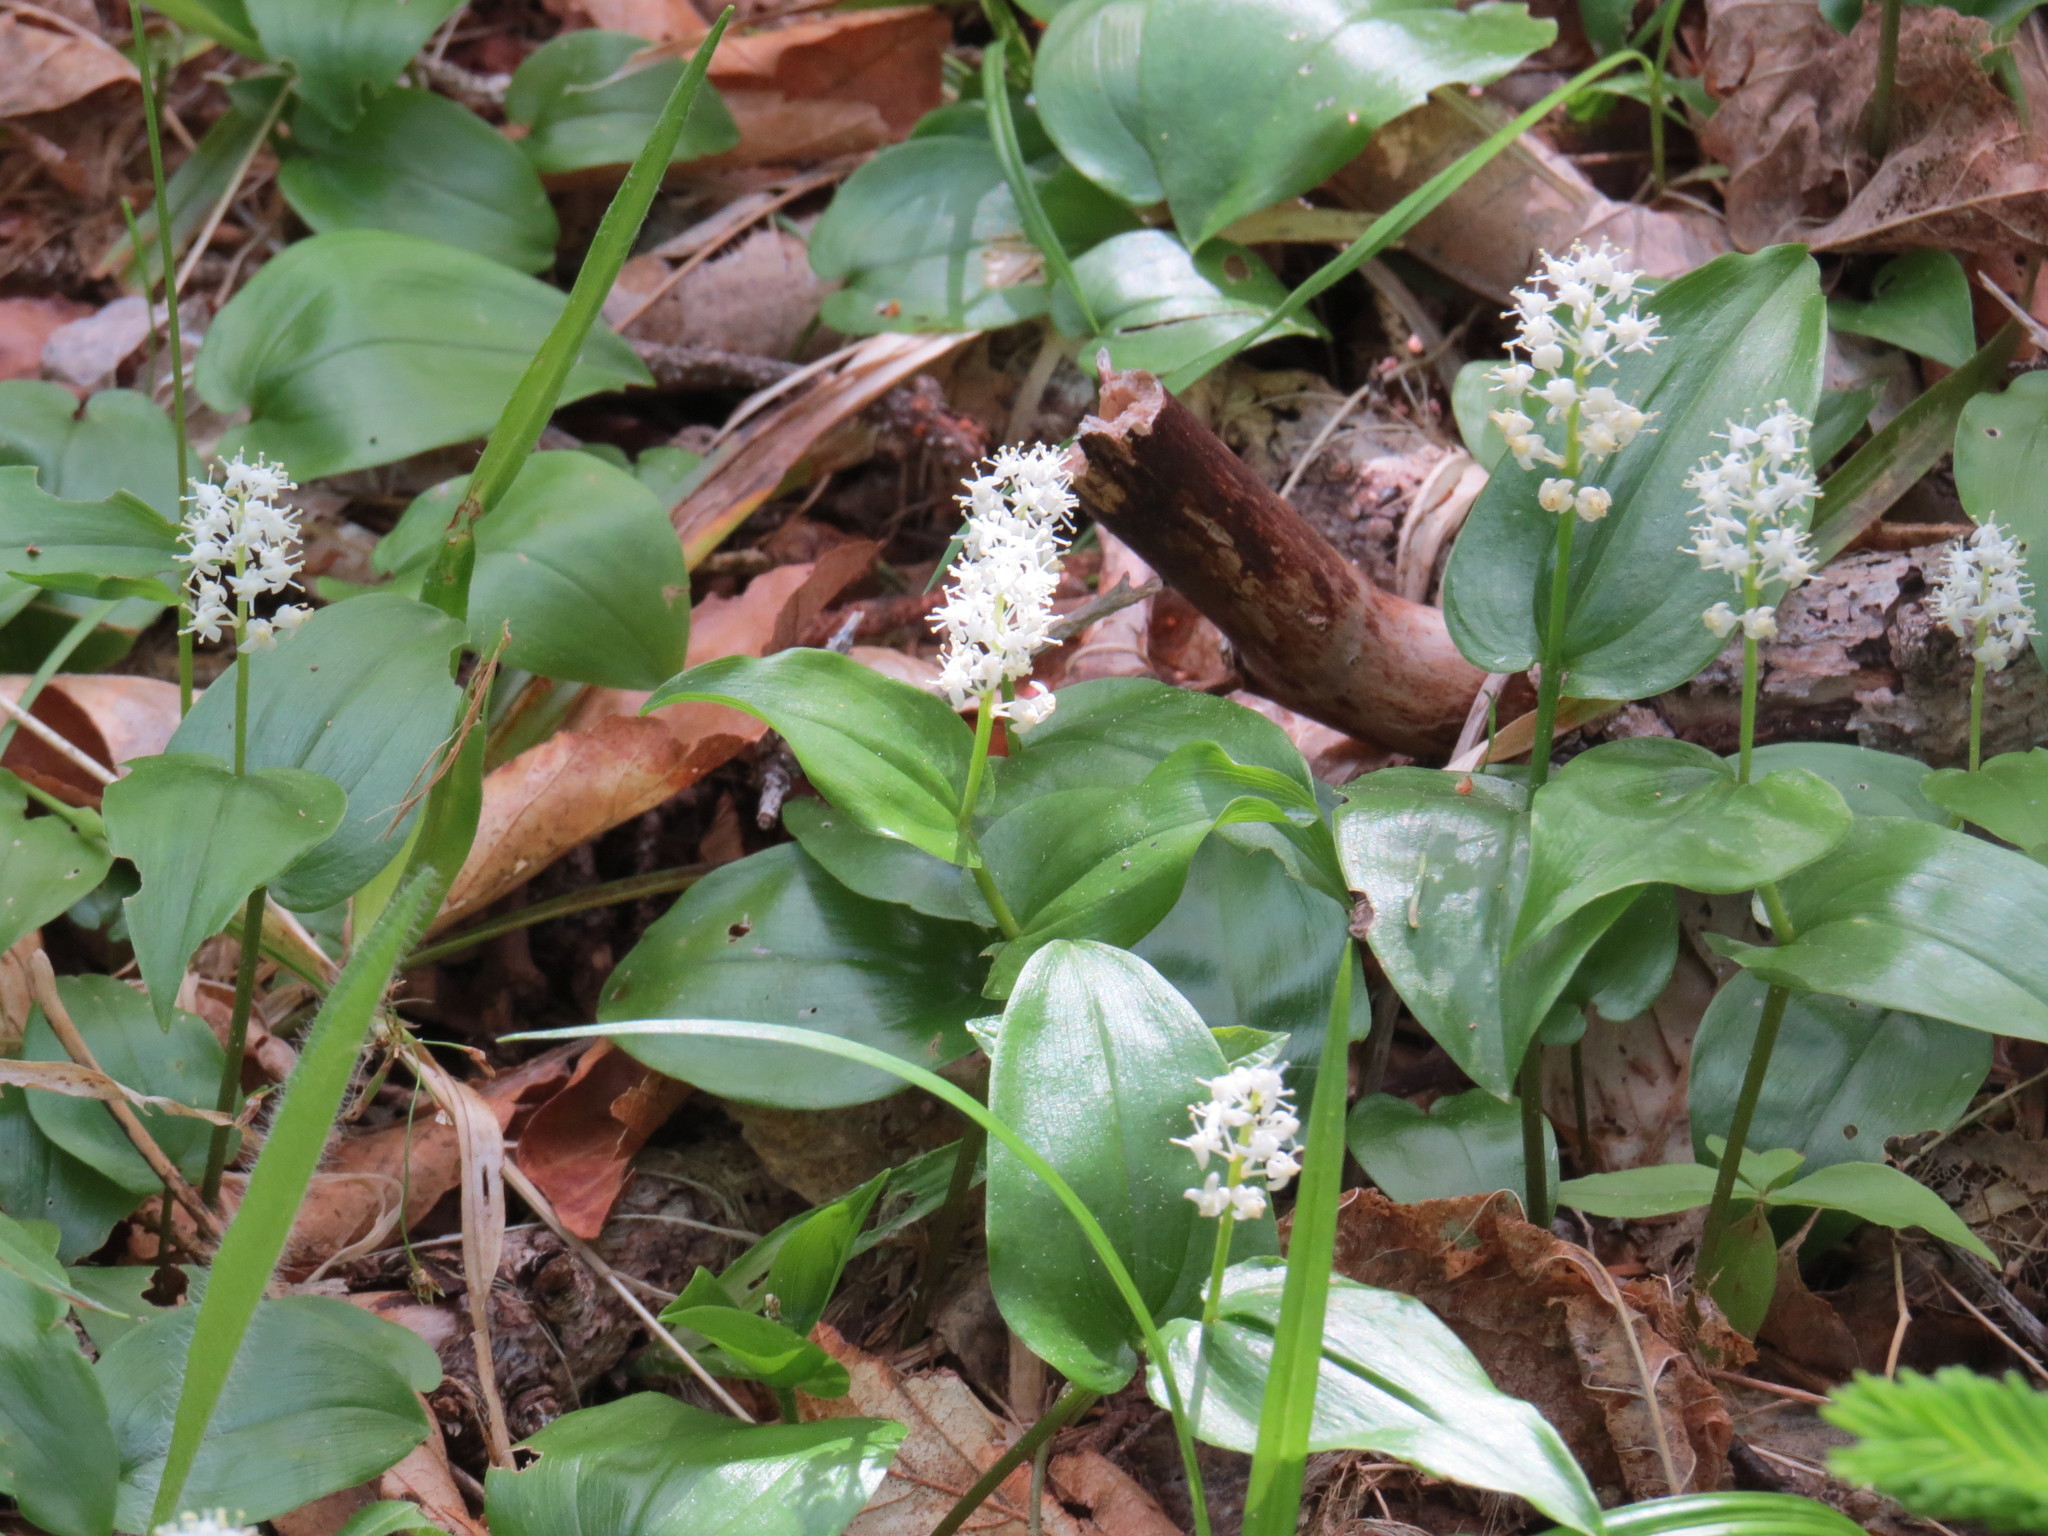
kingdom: Plantae
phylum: Tracheophyta
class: Liliopsida
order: Asparagales
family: Asparagaceae
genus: Maianthemum
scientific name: Maianthemum canadense
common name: False lily-of-the-valley
